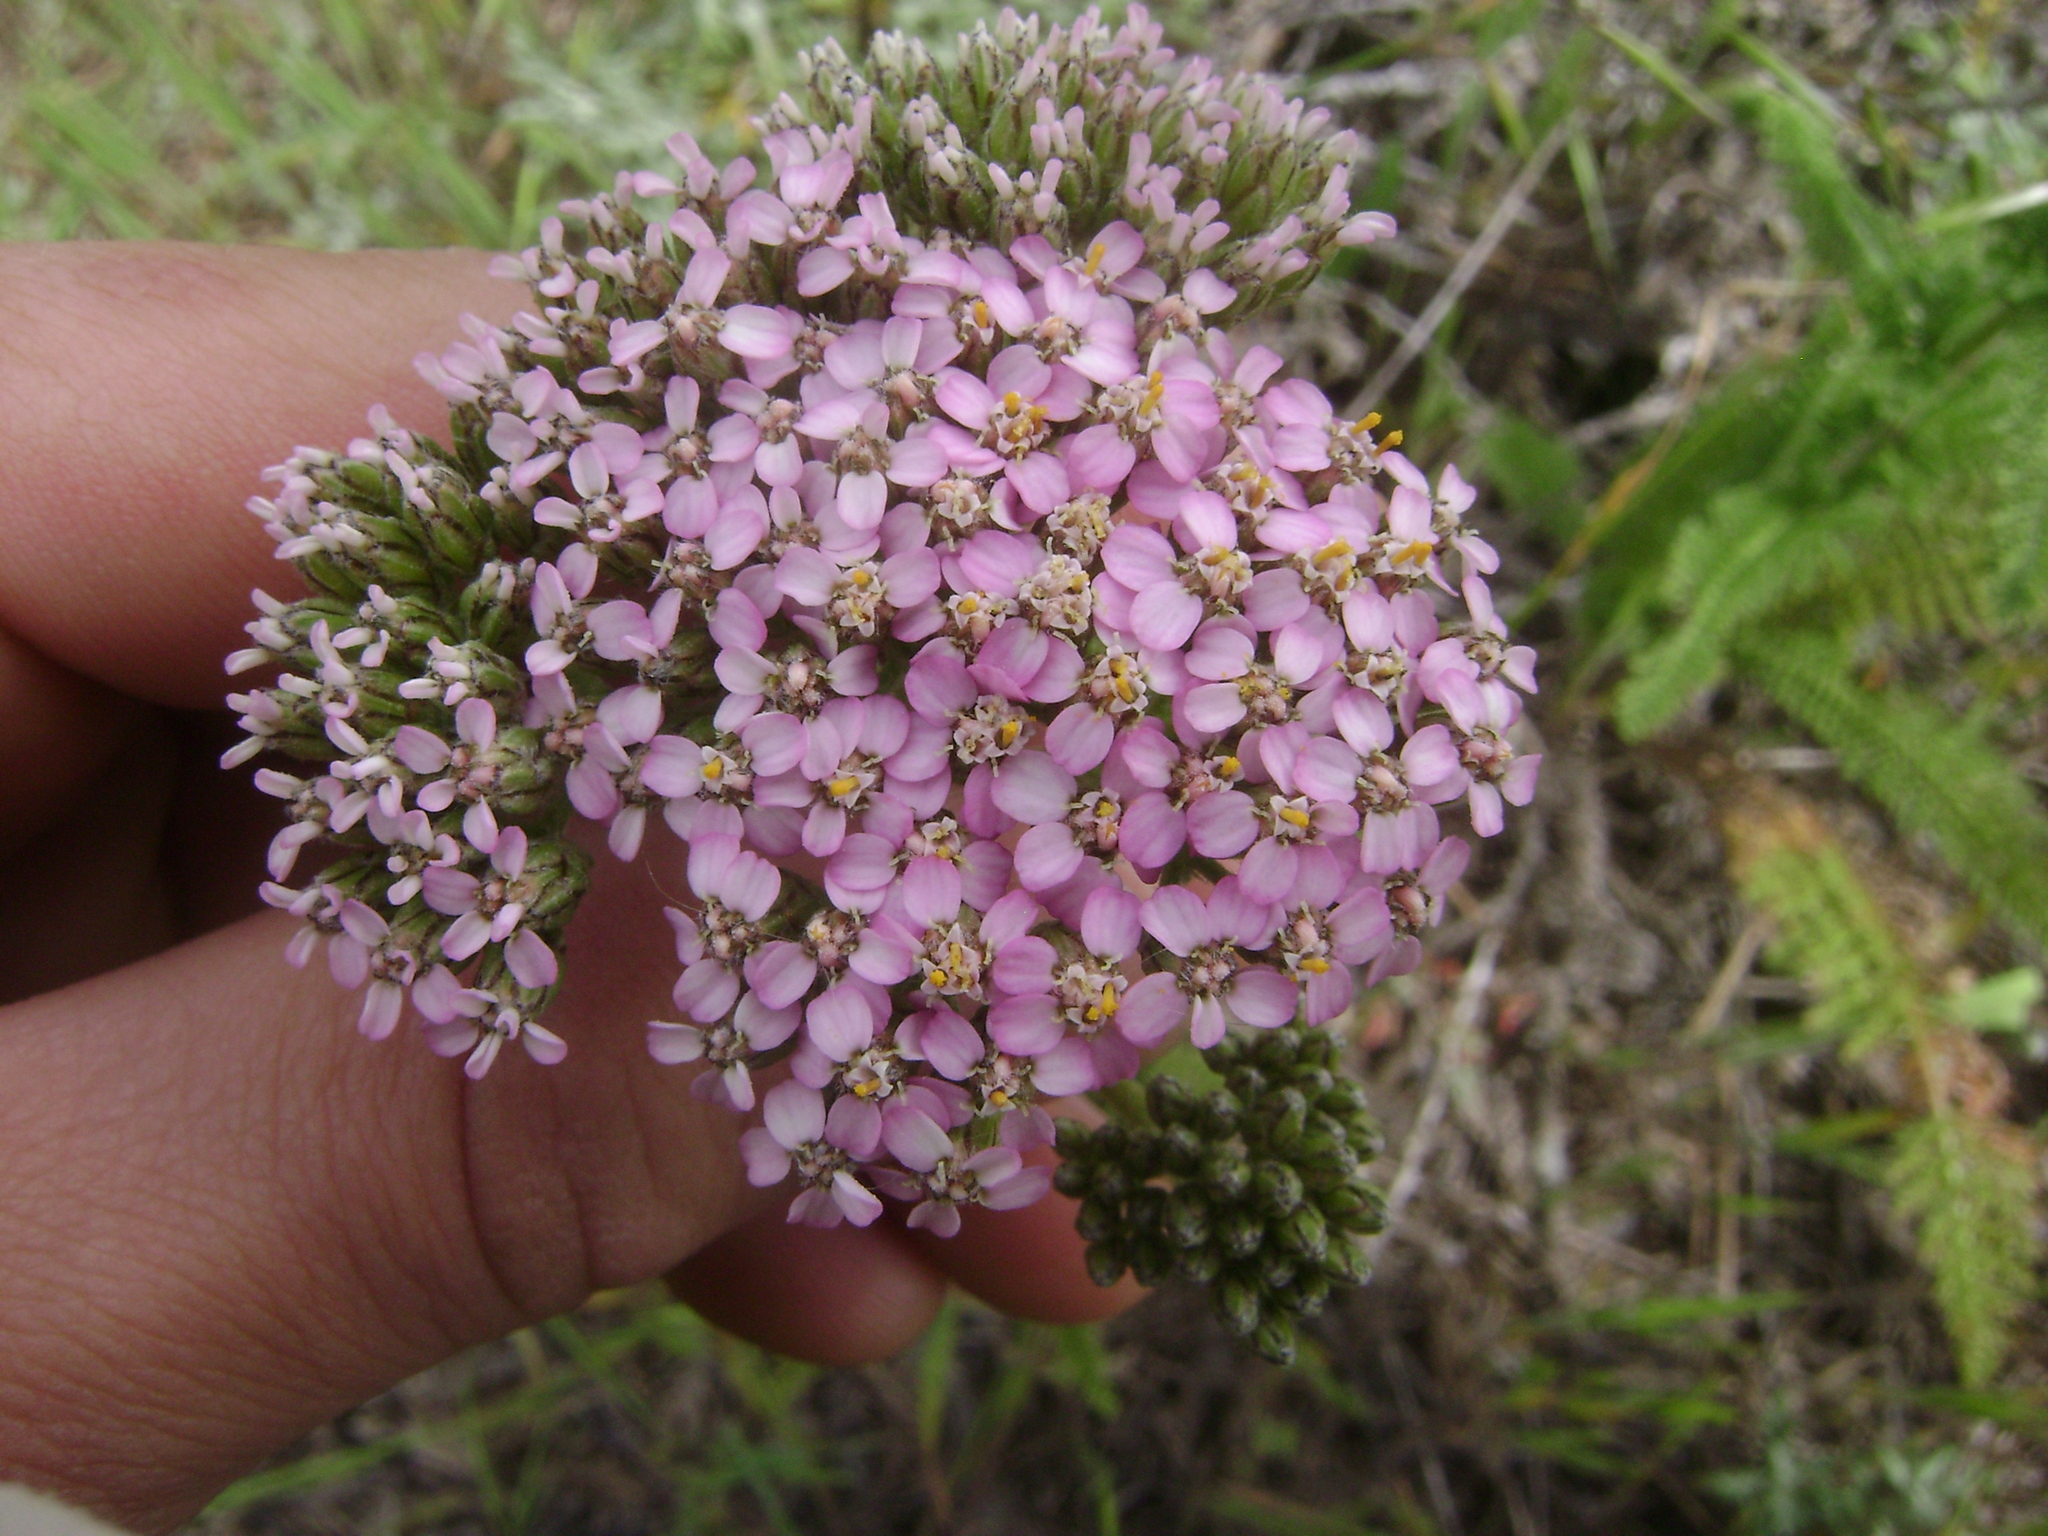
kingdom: Plantae
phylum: Tracheophyta
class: Magnoliopsida
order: Asterales
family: Asteraceae
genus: Achillea
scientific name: Achillea millefolium
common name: Yarrow
